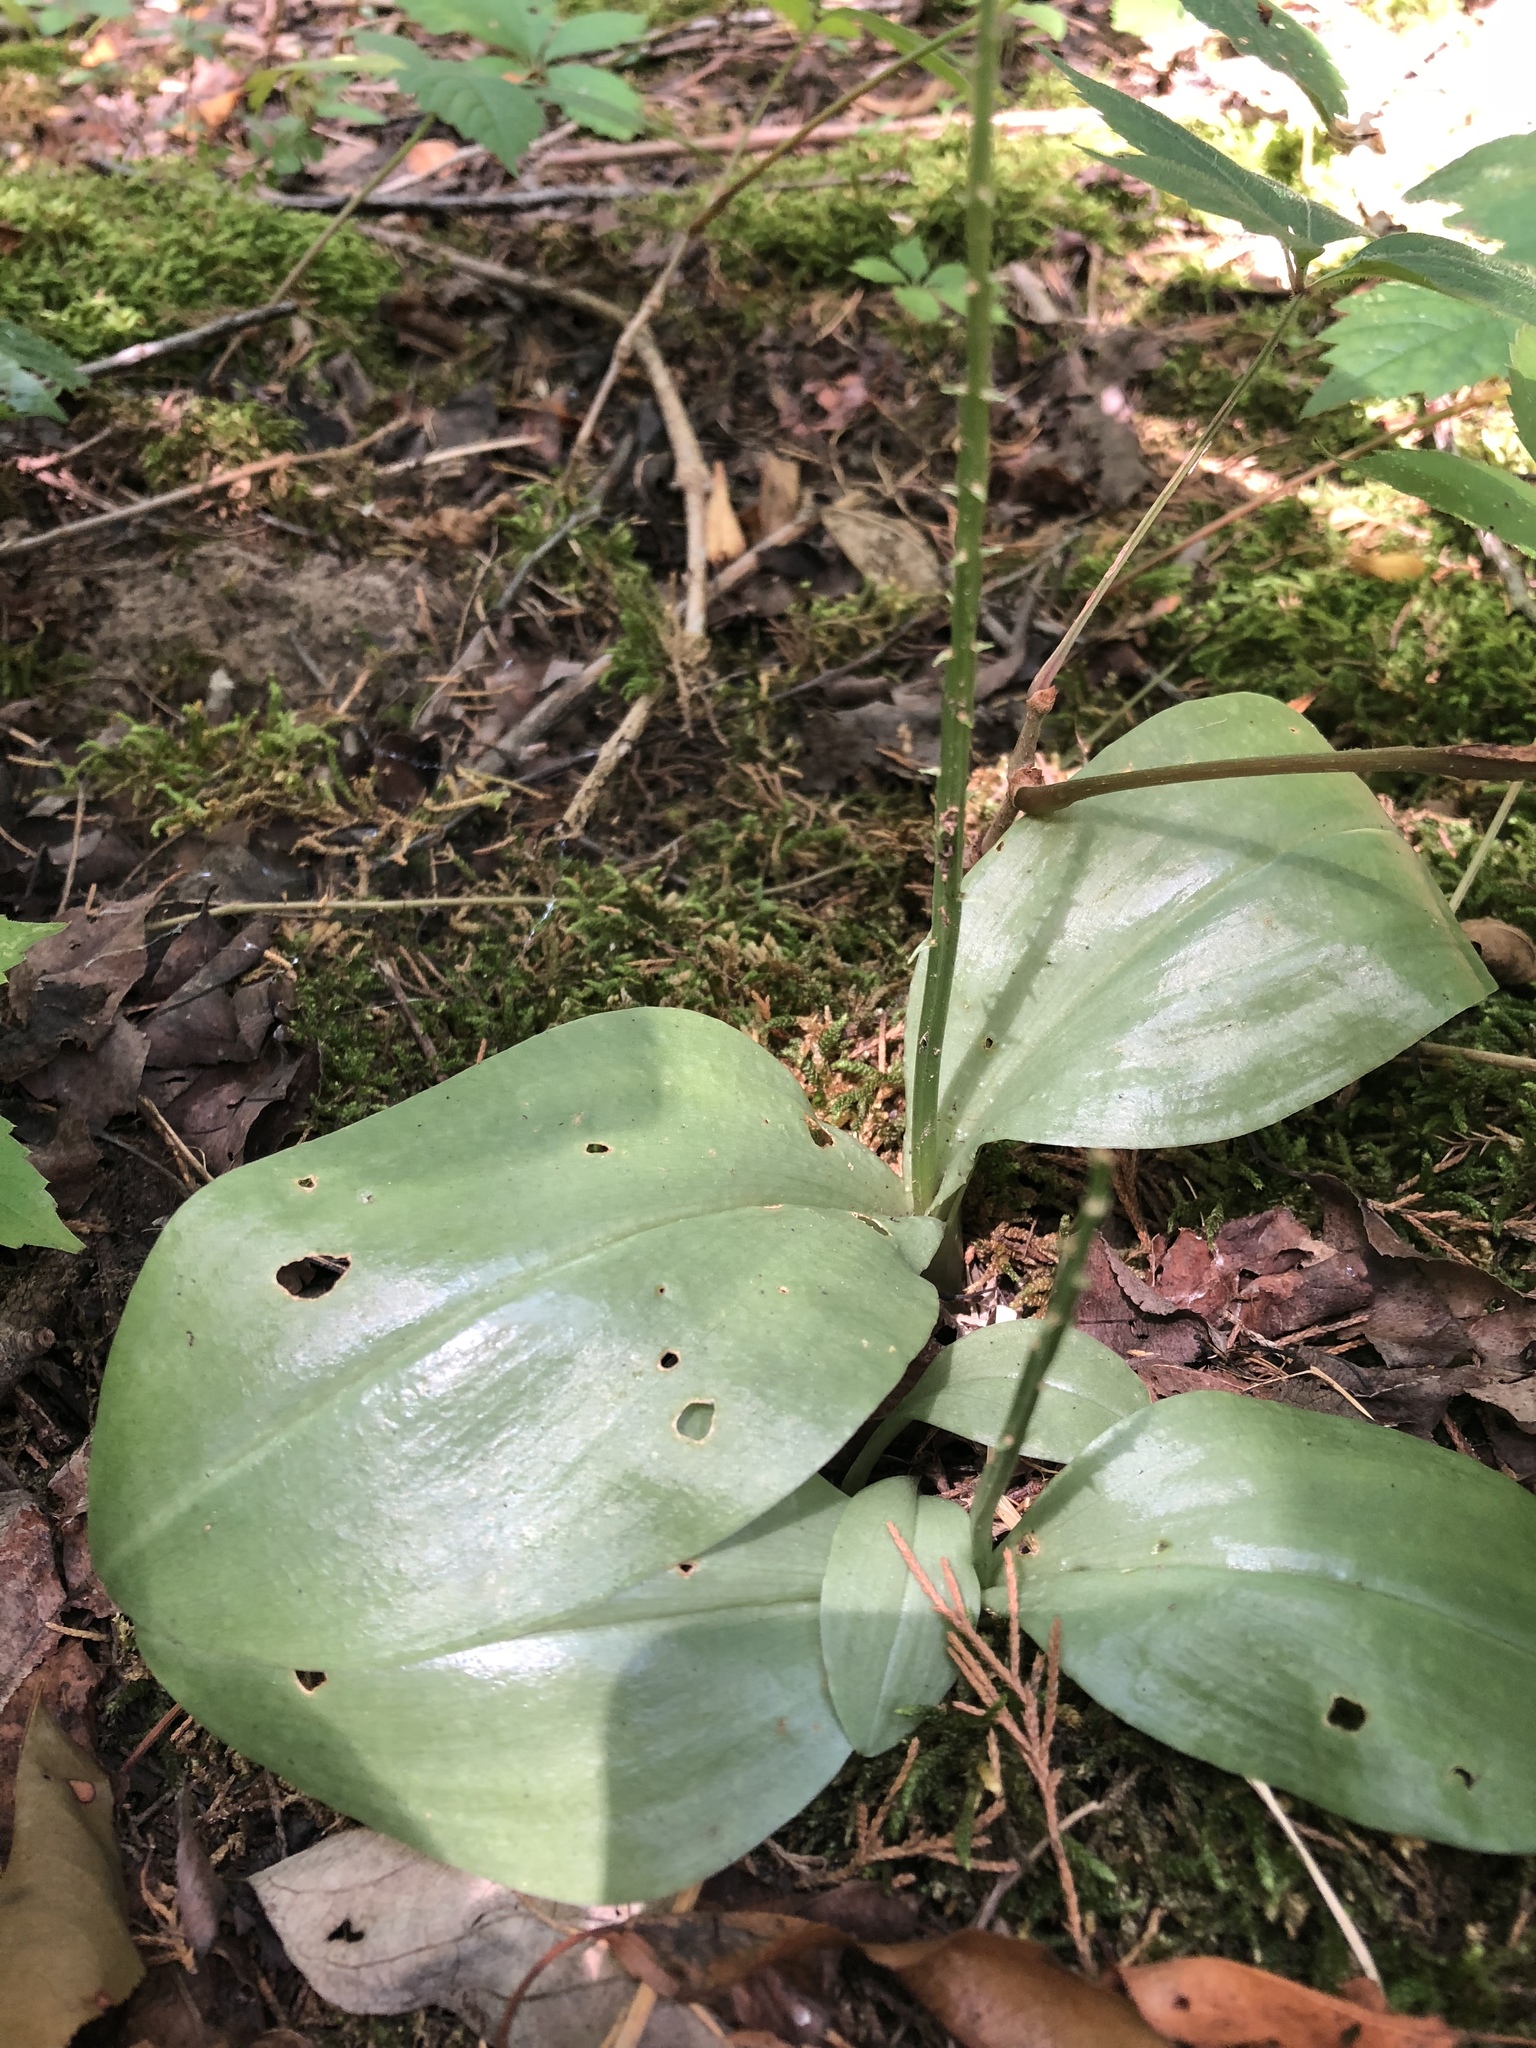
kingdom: Plantae
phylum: Tracheophyta
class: Liliopsida
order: Asparagales
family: Orchidaceae
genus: Liparis
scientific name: Liparis liliifolia
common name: Brown wide-lip orchid
